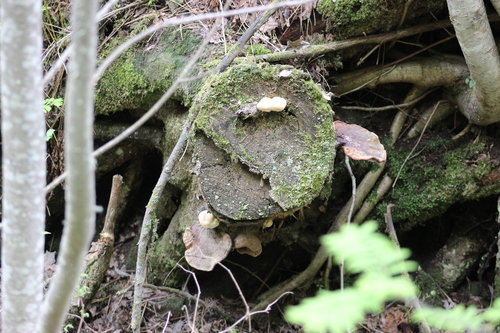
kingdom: Fungi
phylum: Basidiomycota
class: Agaricomycetes
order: Polyporales
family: Polyporaceae
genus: Ganoderma
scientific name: Ganoderma lucidum
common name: Lacquered bracket
